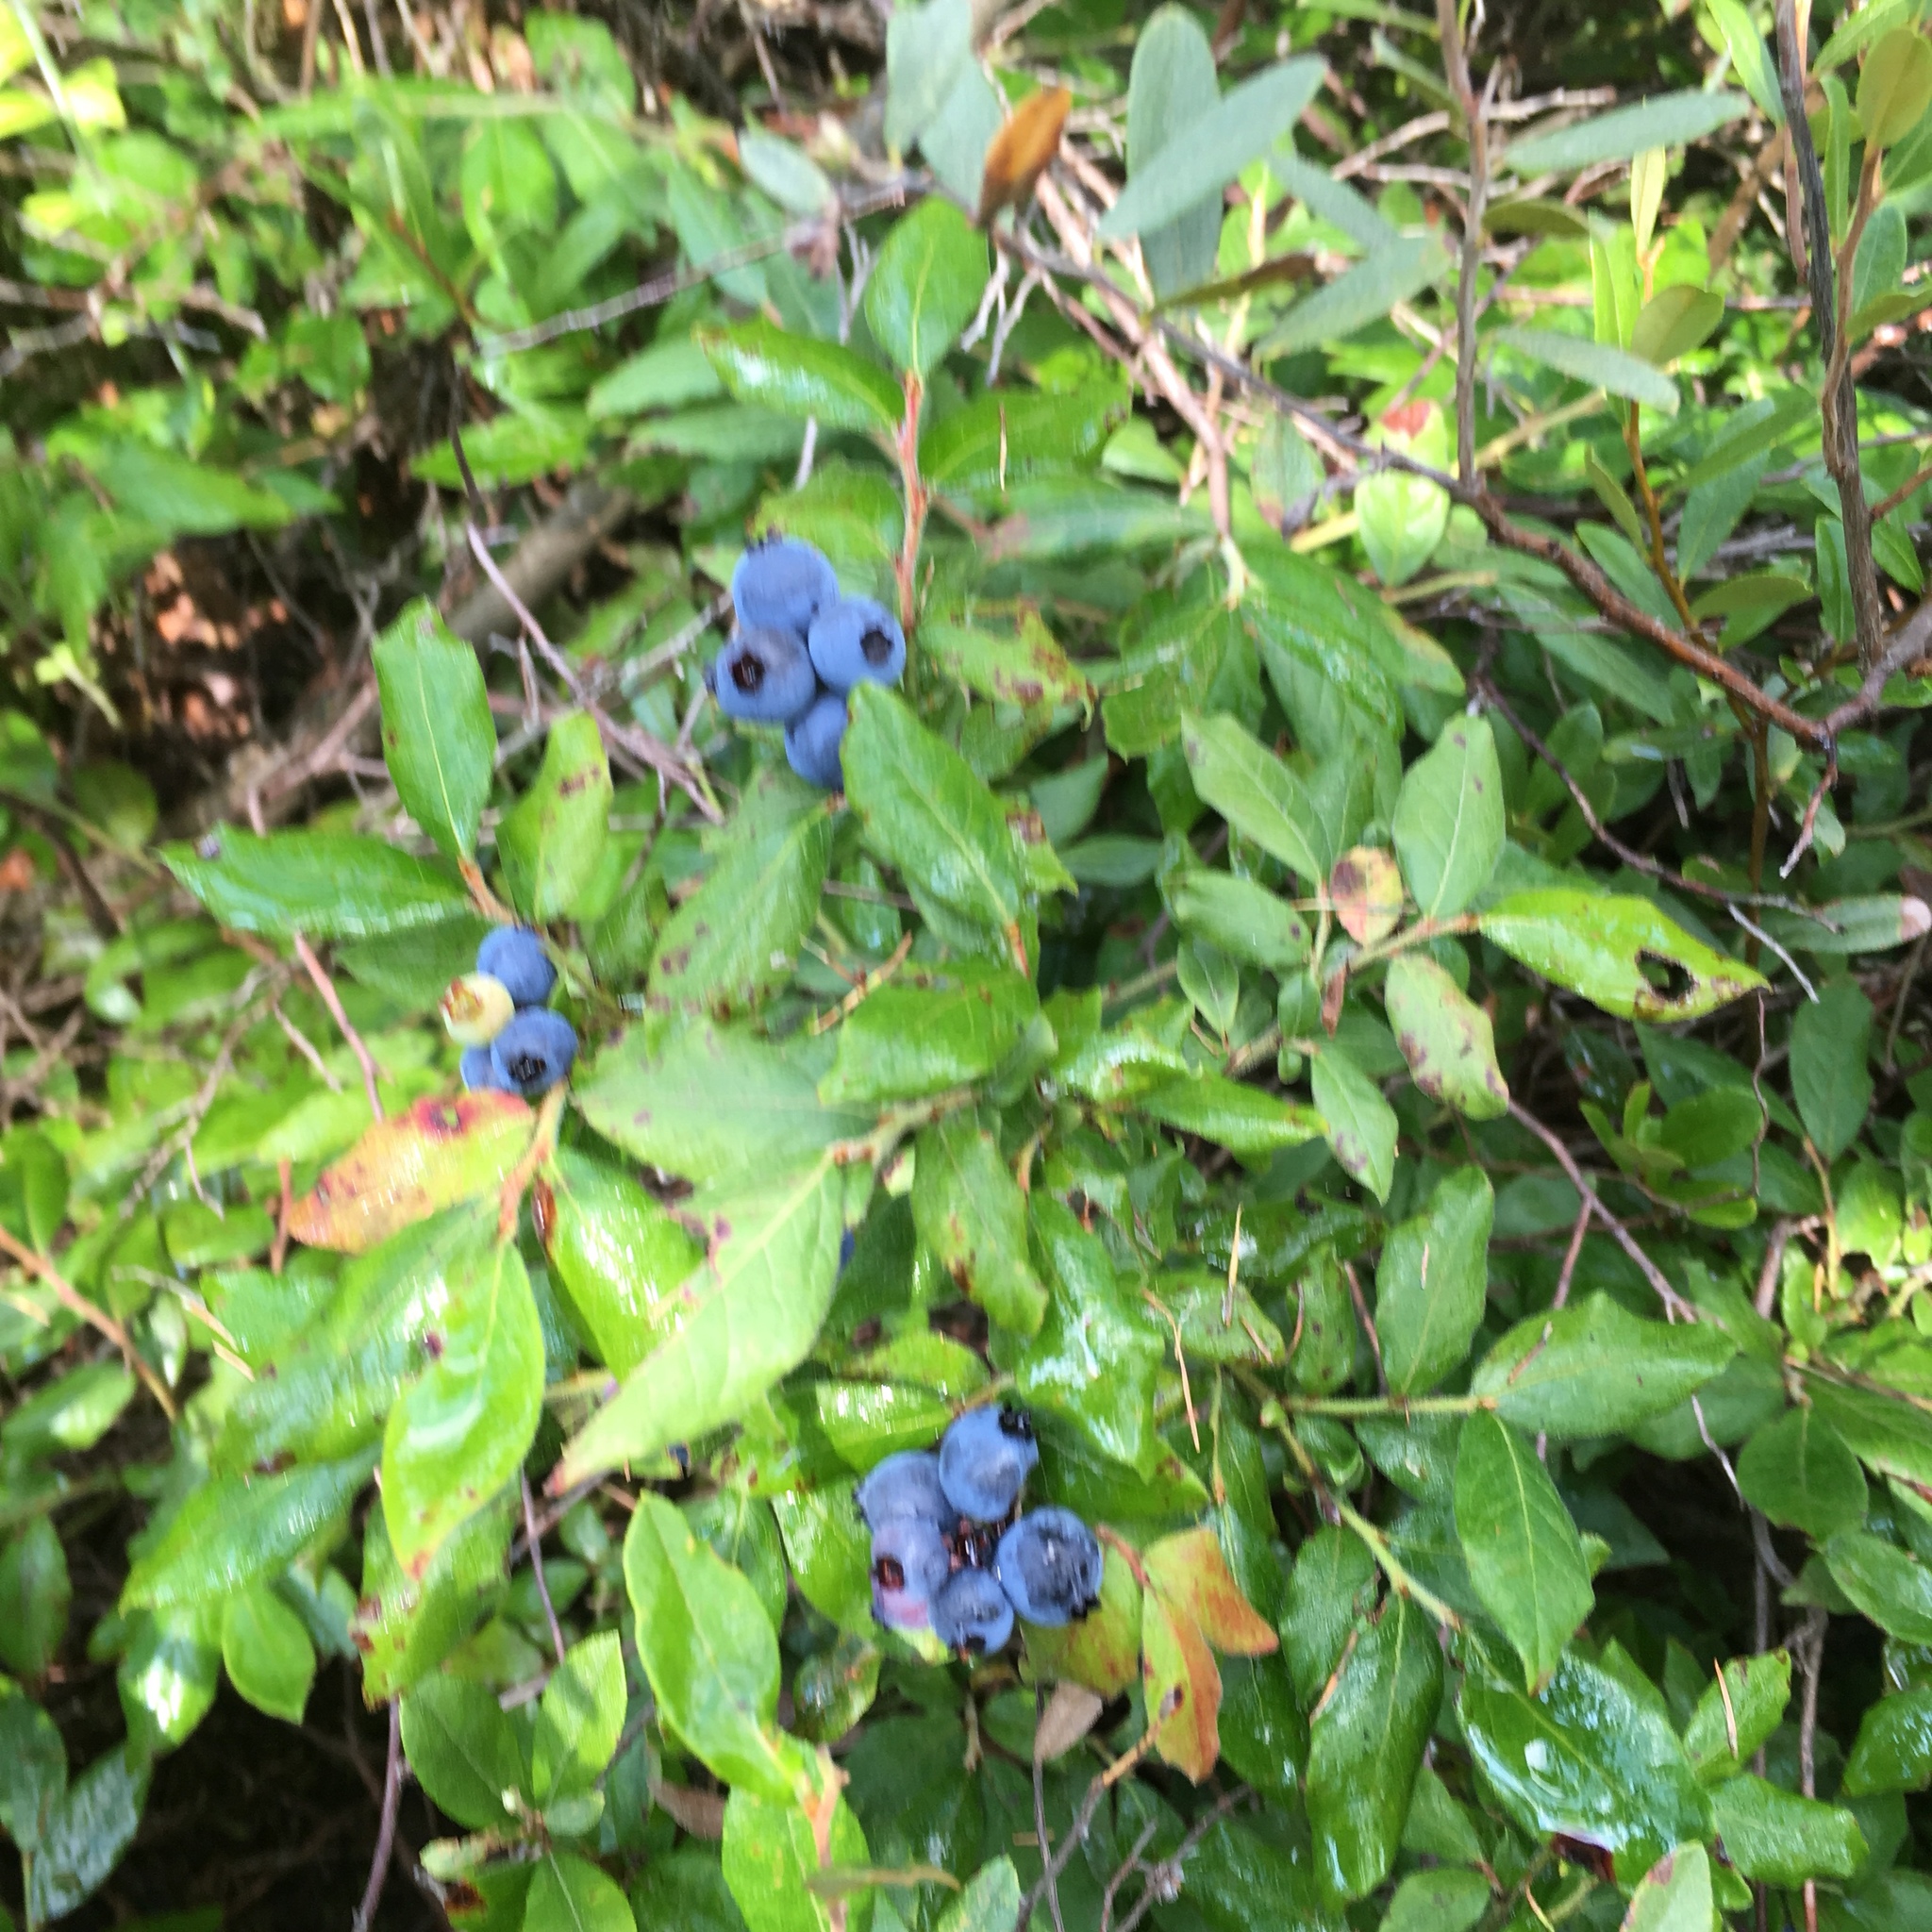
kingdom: Plantae
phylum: Tracheophyta
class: Magnoliopsida
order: Ericales
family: Ericaceae
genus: Vaccinium
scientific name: Vaccinium myrtilloides
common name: Canada blueberry
